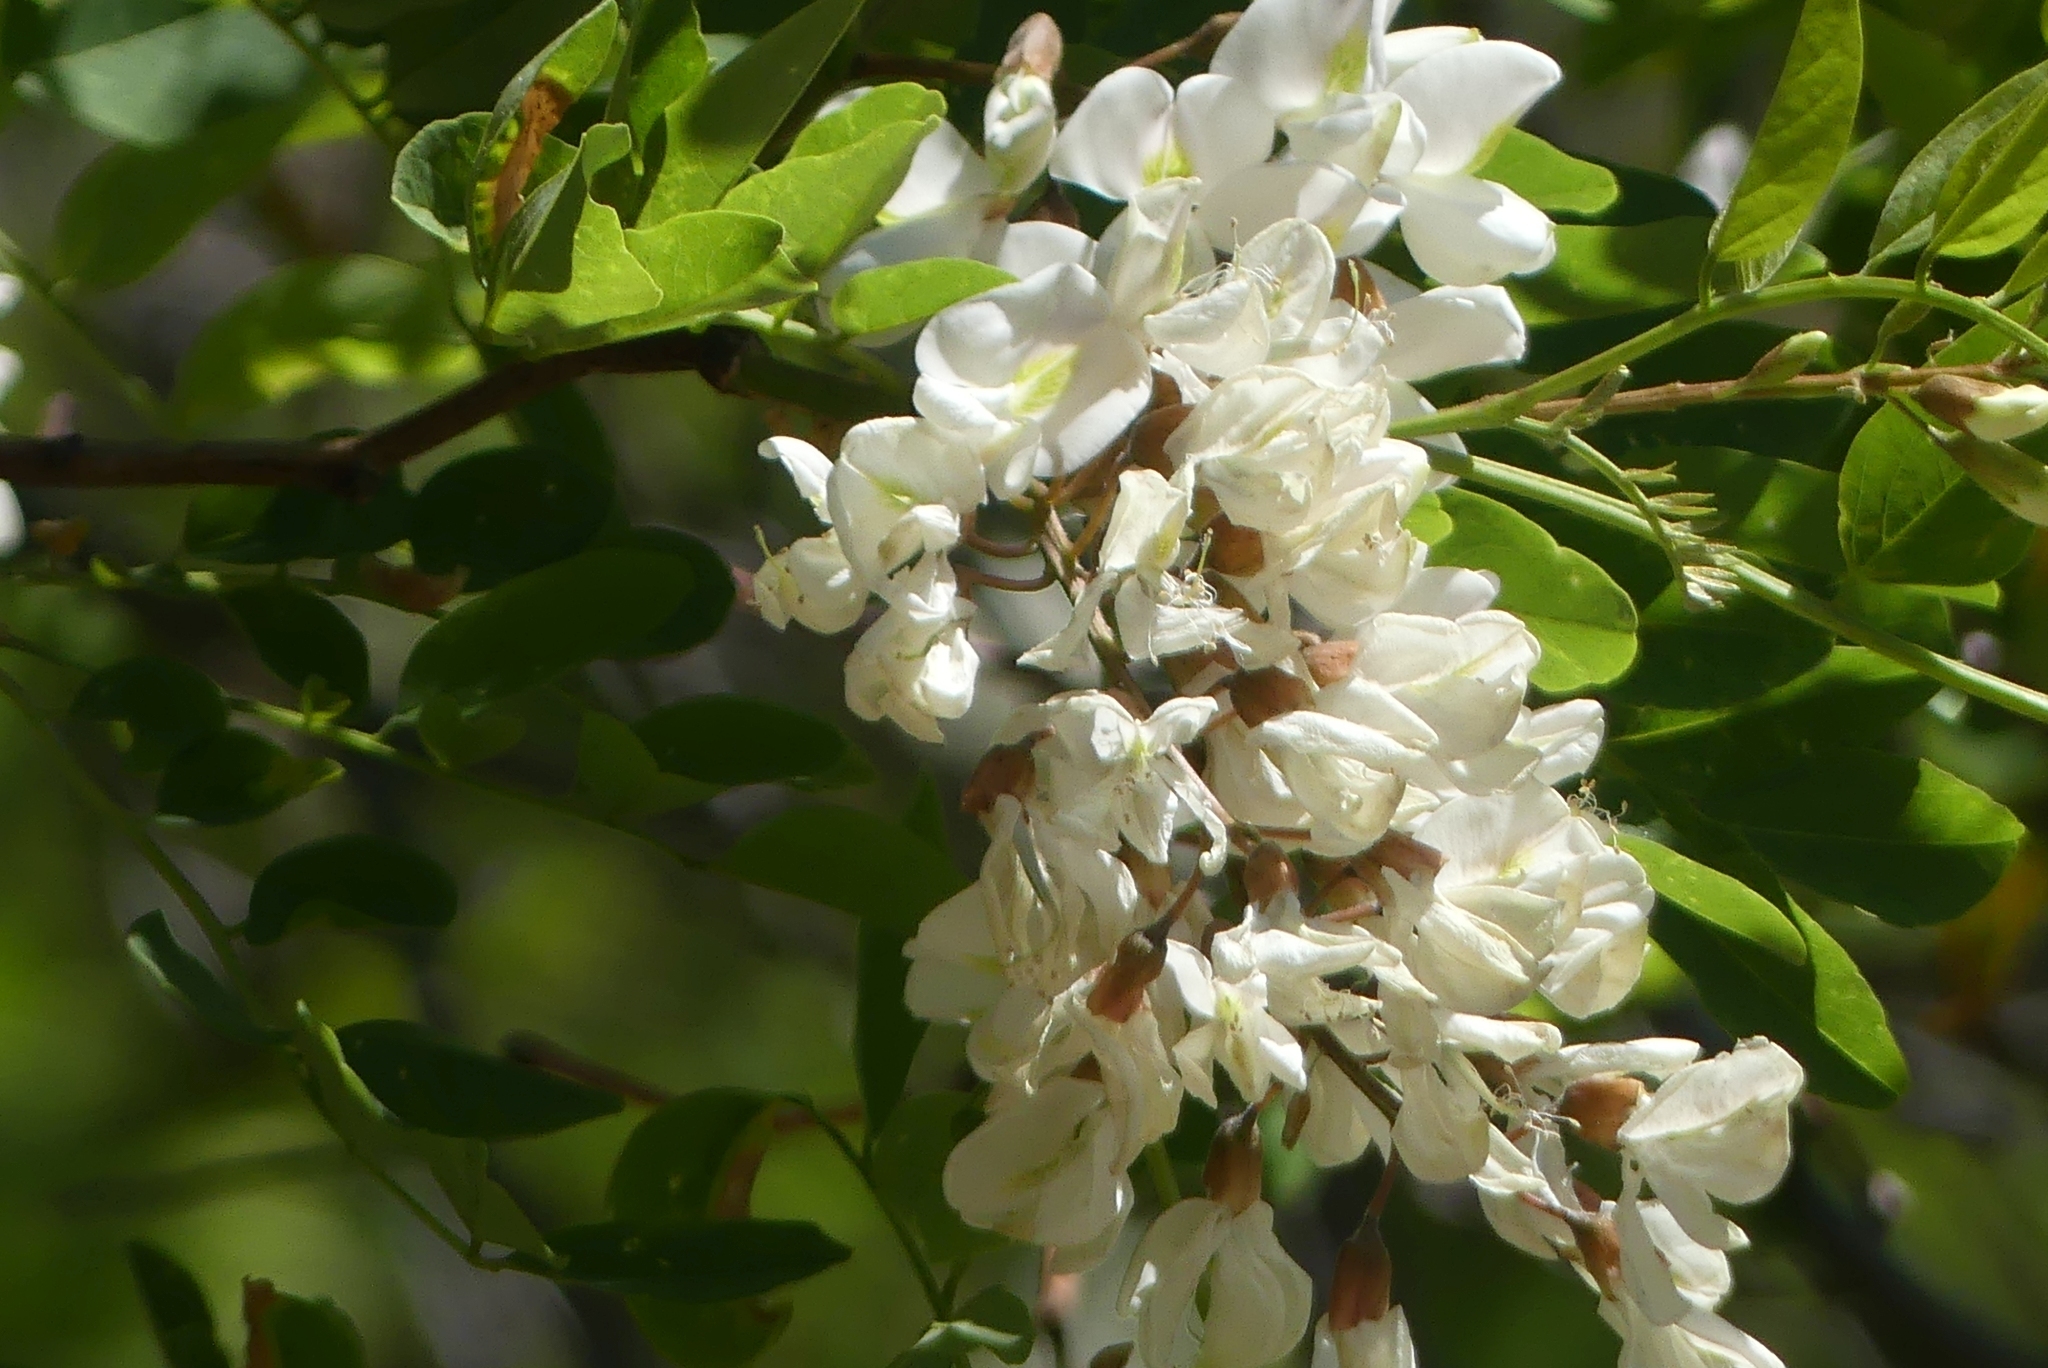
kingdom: Plantae
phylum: Tracheophyta
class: Magnoliopsida
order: Fabales
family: Fabaceae
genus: Robinia
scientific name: Robinia pseudoacacia
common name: Black locust
